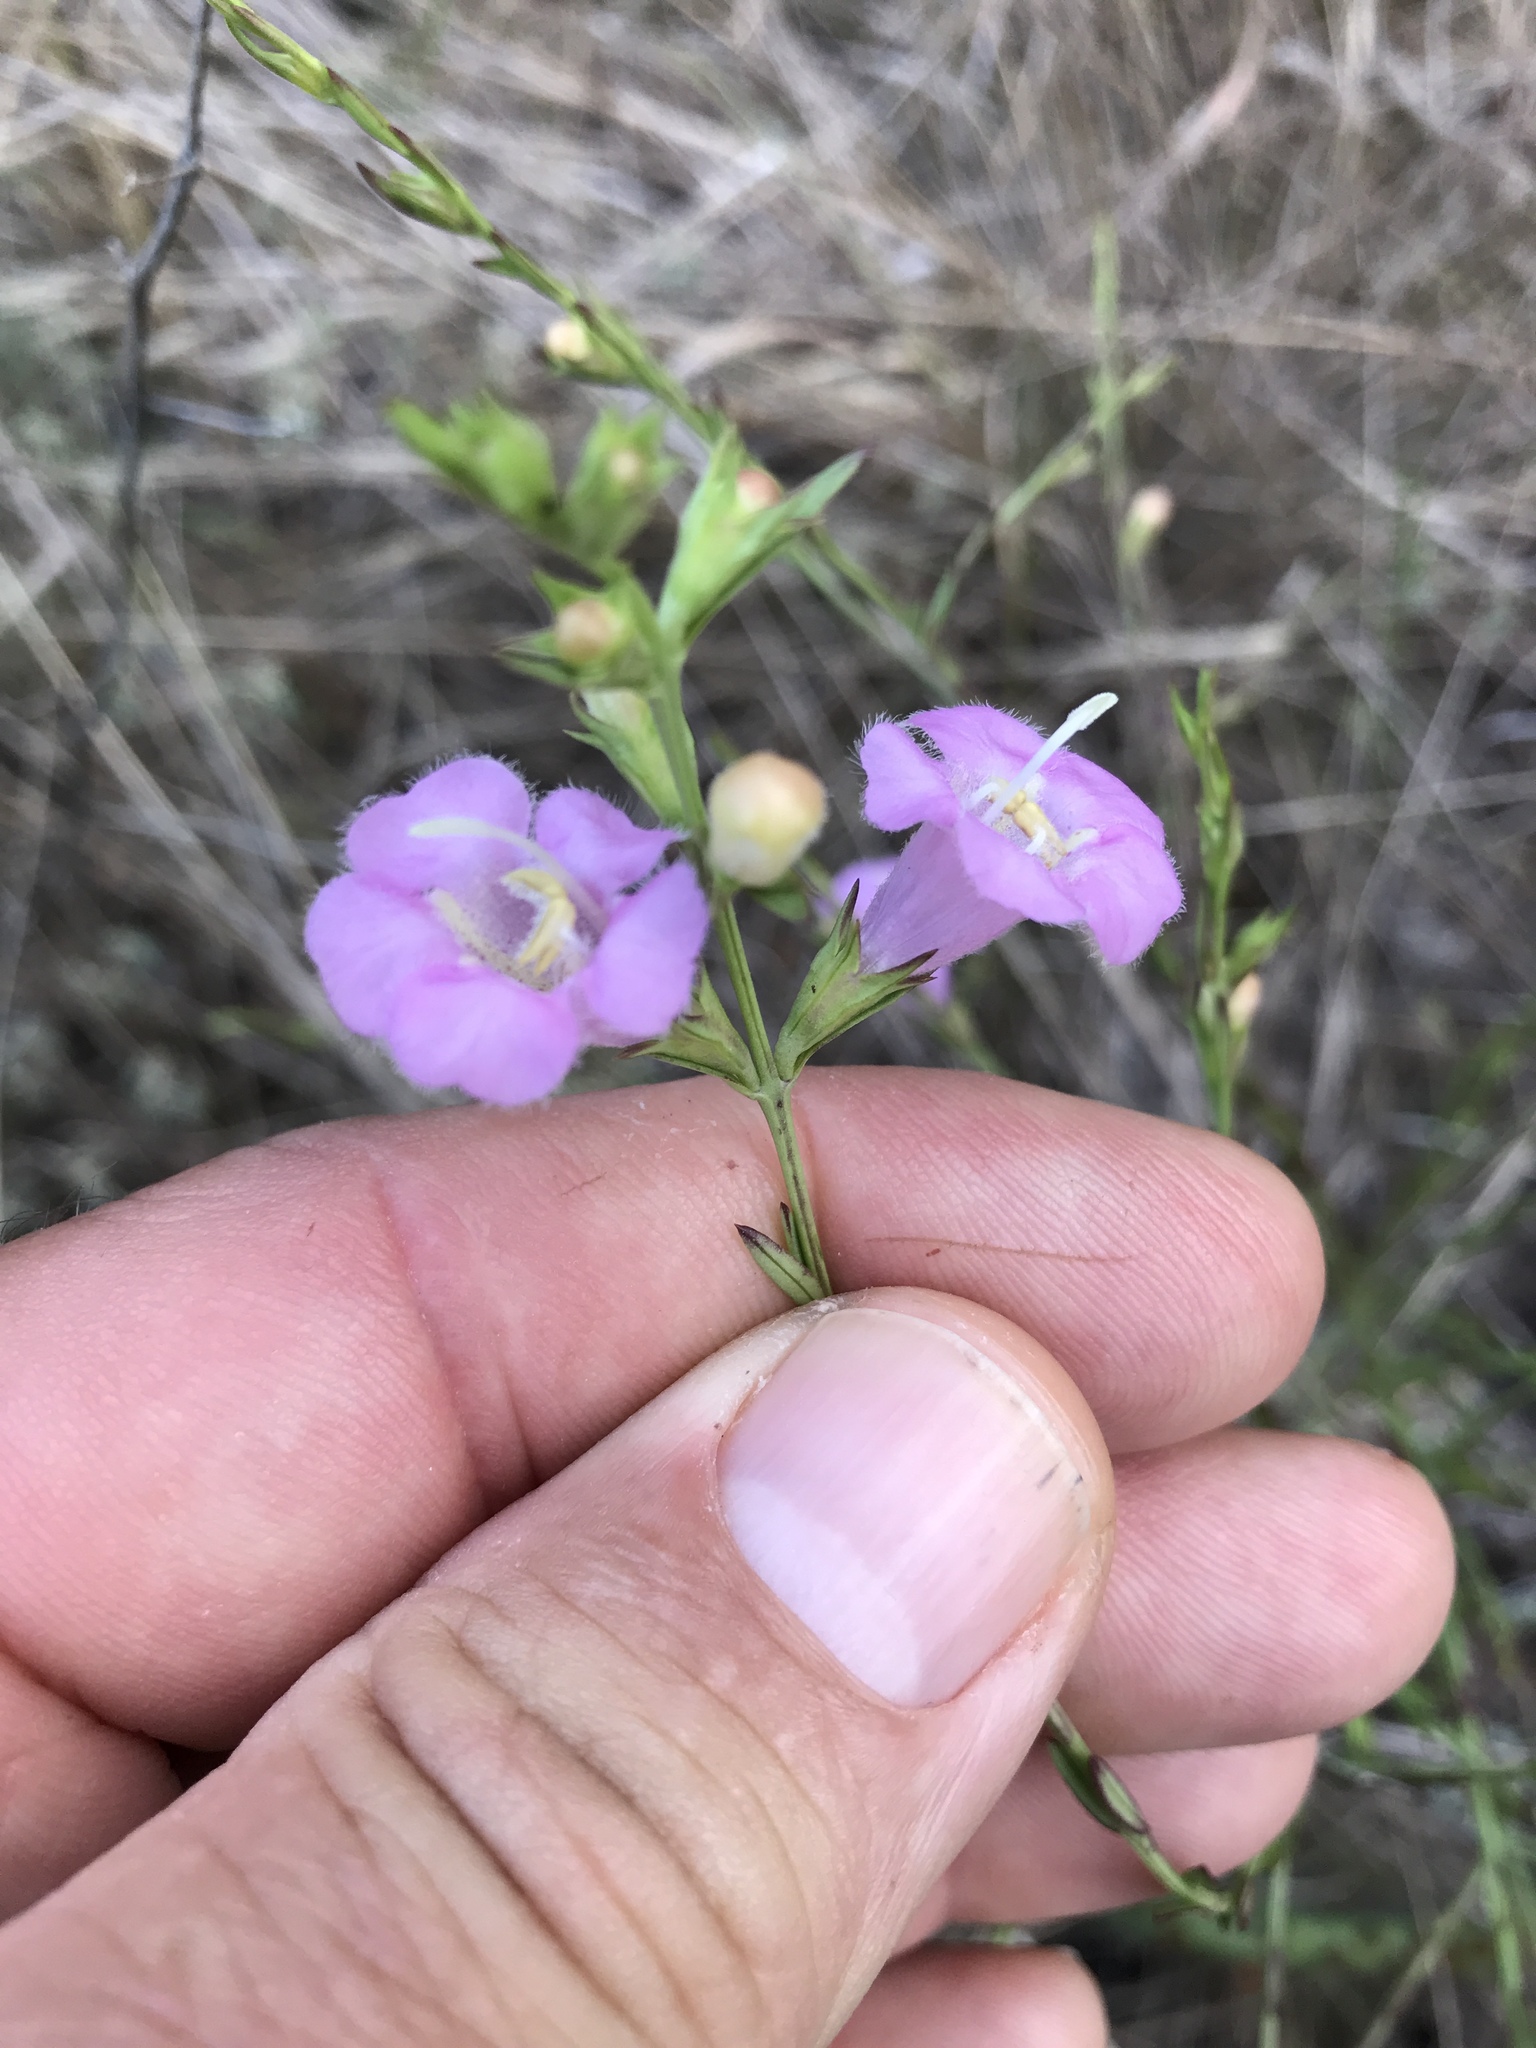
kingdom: Plantae
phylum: Tracheophyta
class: Magnoliopsida
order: Lamiales
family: Orobanchaceae
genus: Agalinis
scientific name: Agalinis heterophylla
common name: Prairie agalinis
